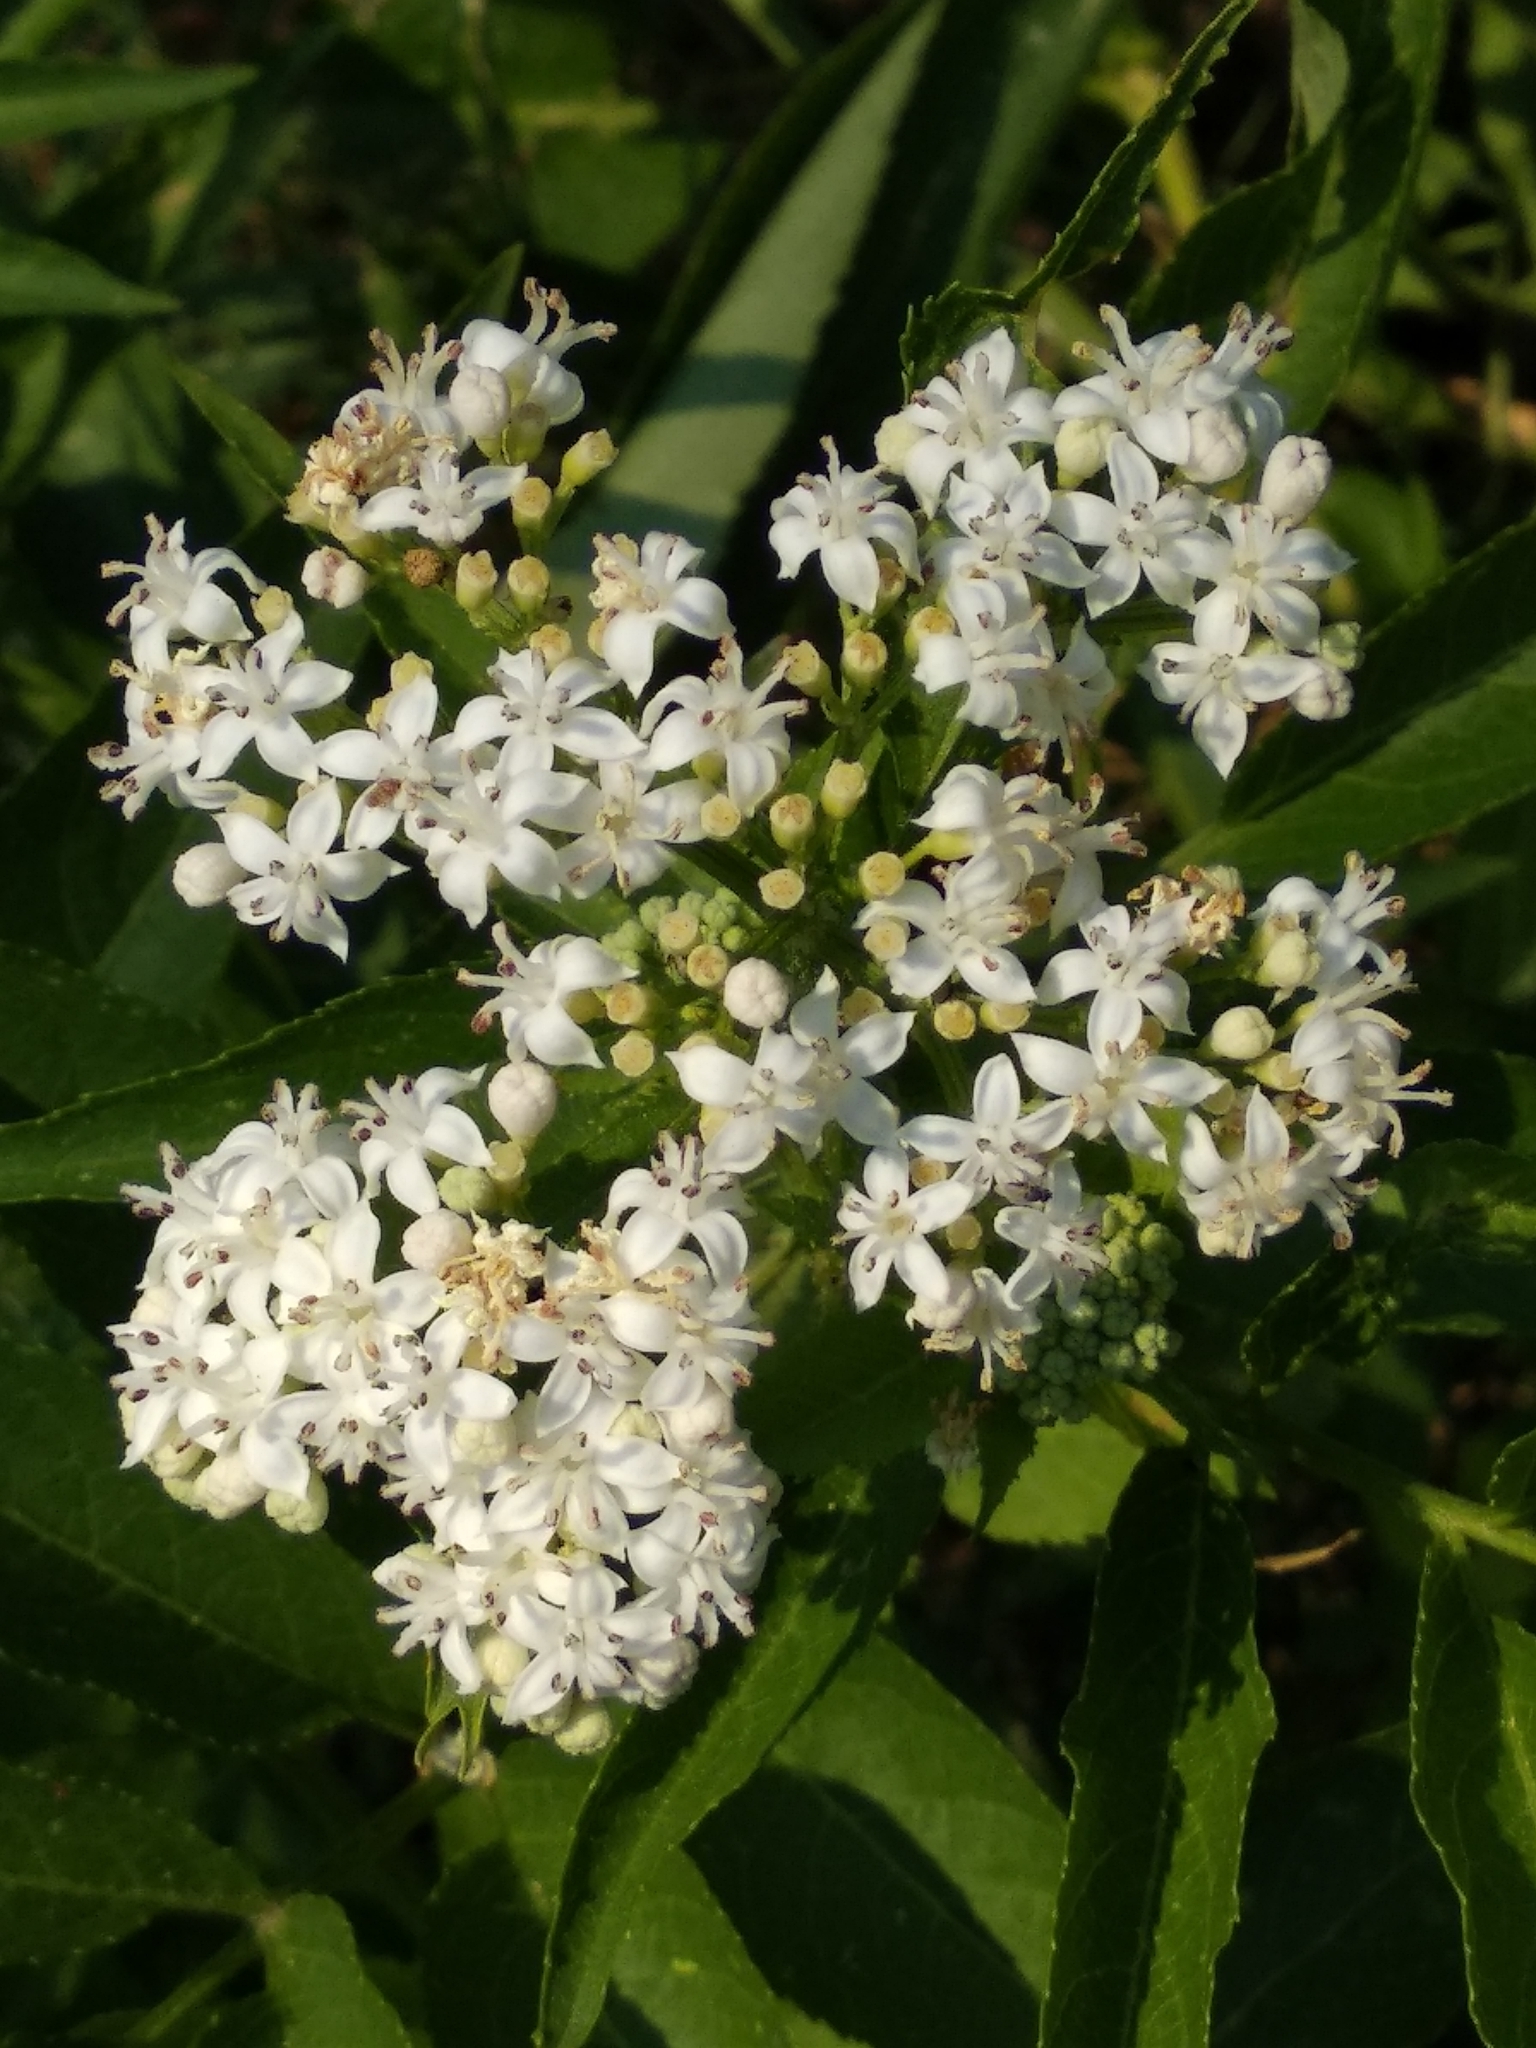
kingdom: Plantae
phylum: Tracheophyta
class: Magnoliopsida
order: Dipsacales
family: Viburnaceae
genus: Sambucus
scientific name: Sambucus ebulus
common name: Dwarf elder
